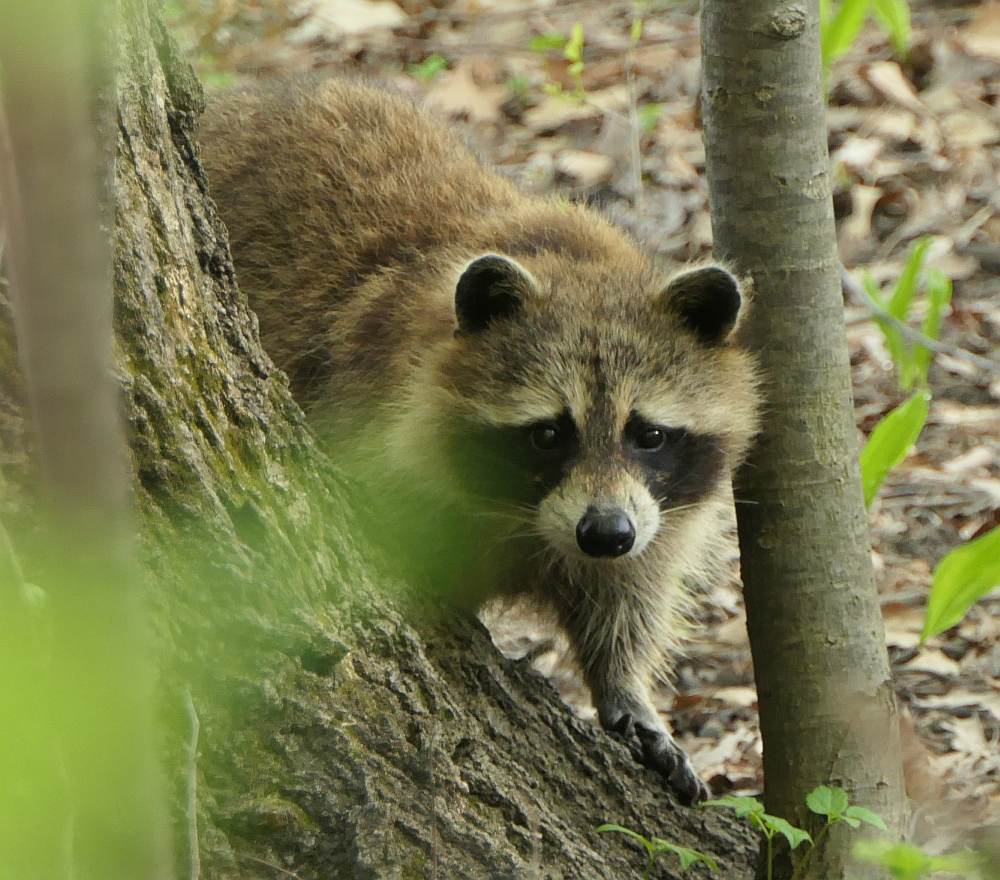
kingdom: Animalia
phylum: Chordata
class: Mammalia
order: Carnivora
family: Procyonidae
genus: Procyon
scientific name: Procyon lotor
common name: Raccoon
